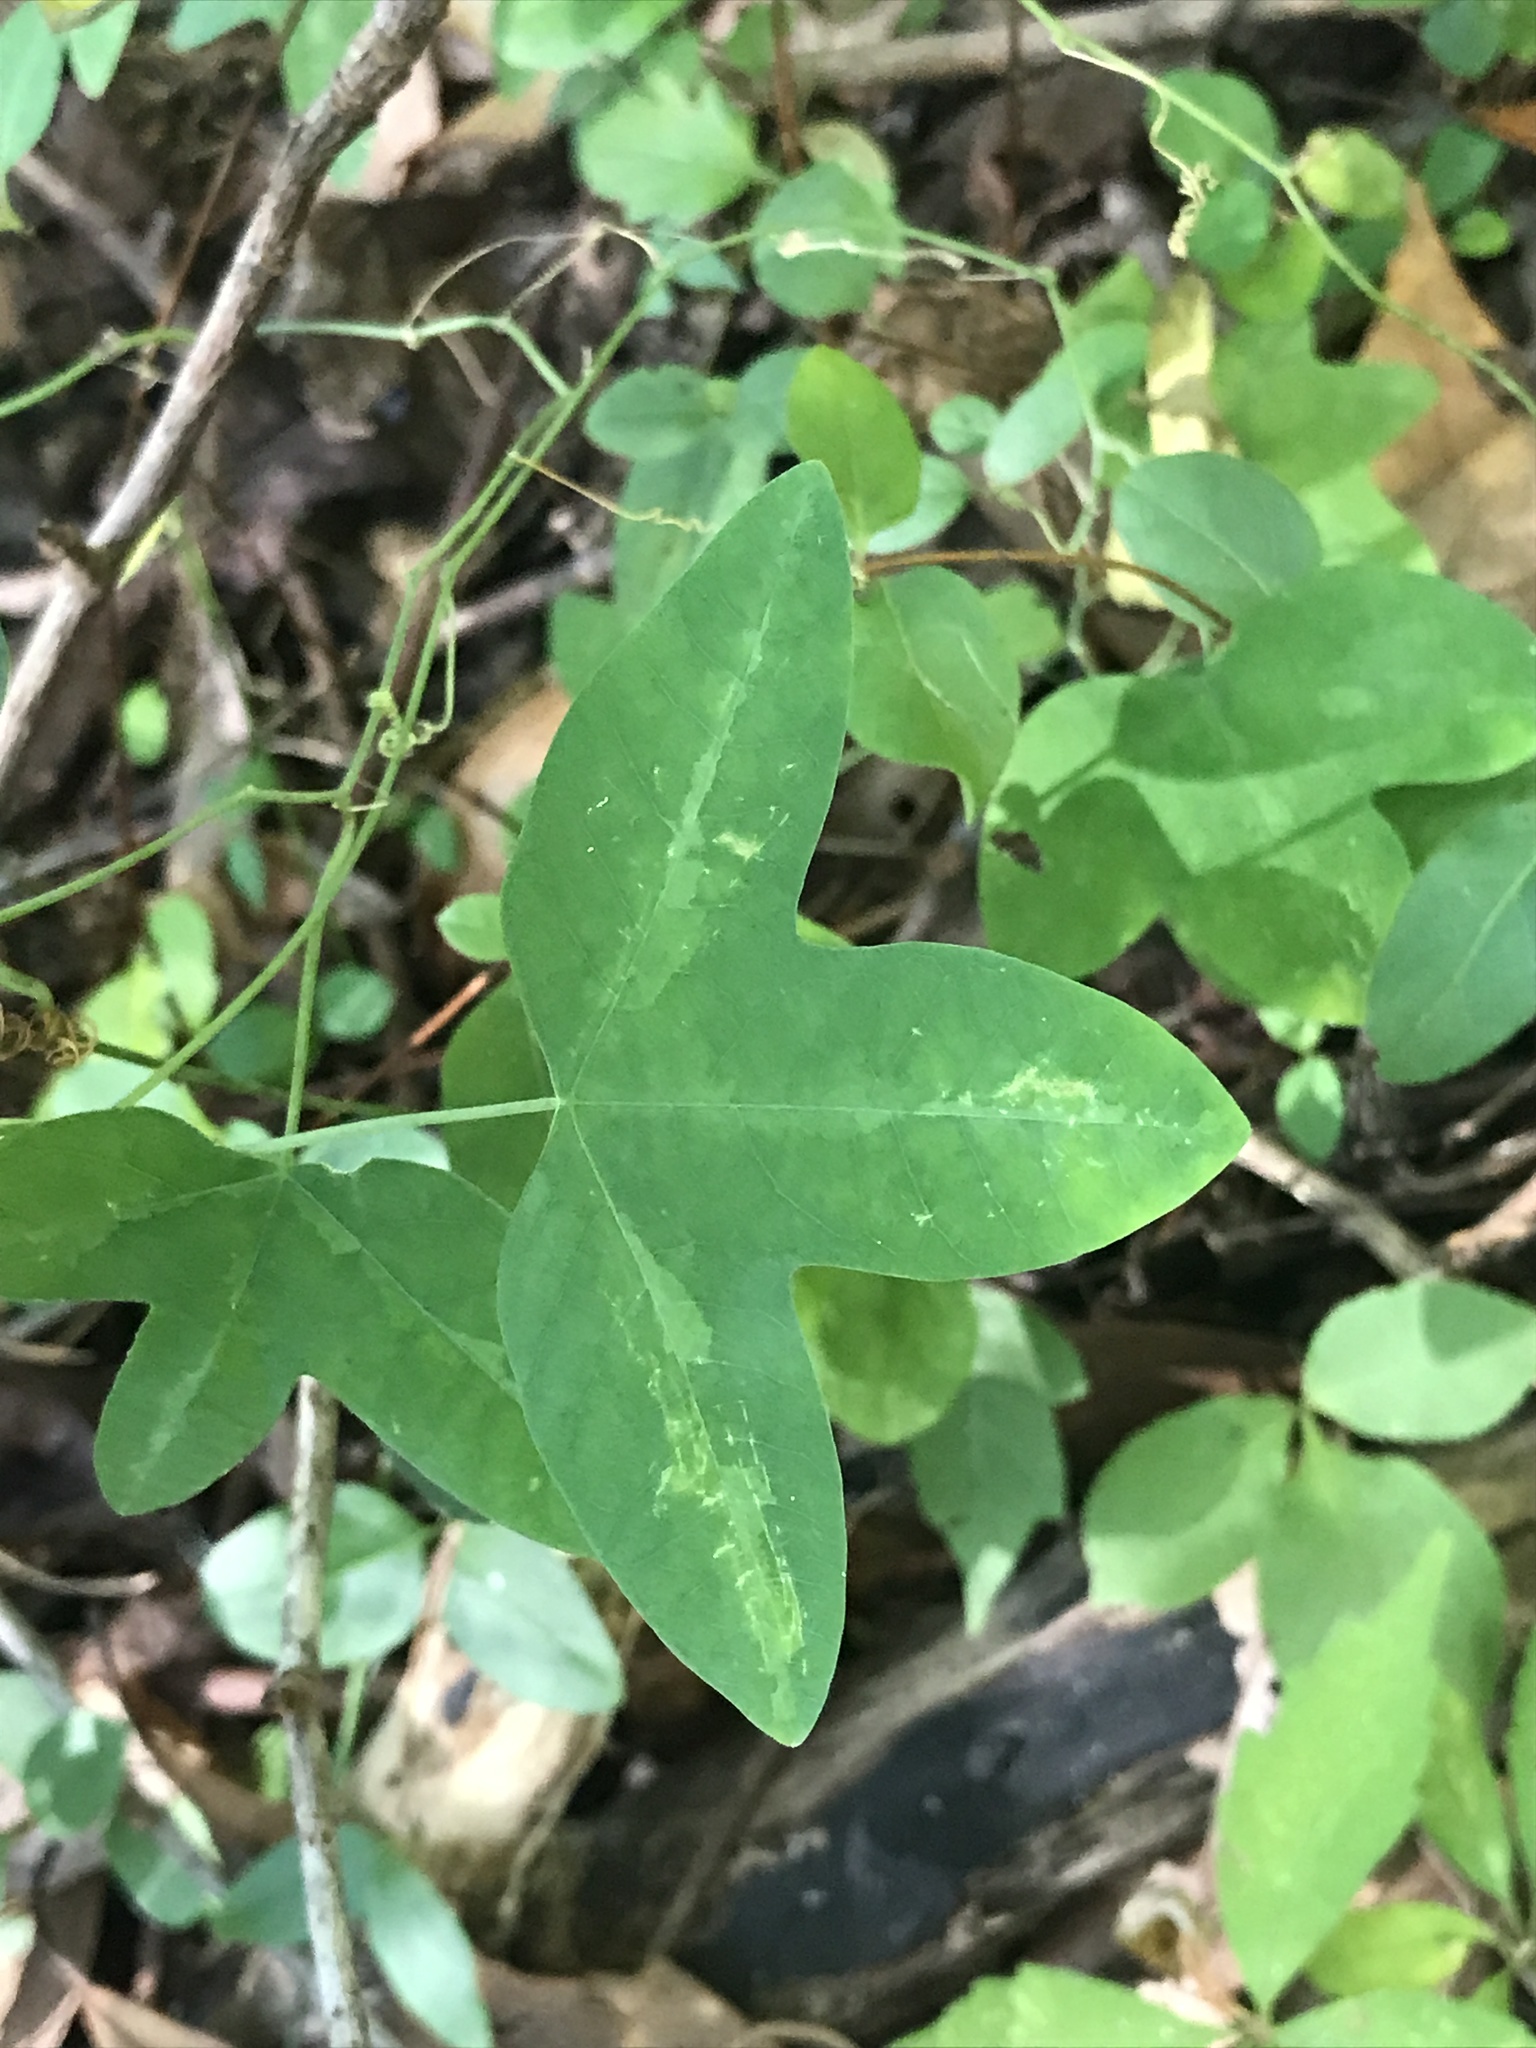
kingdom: Plantae
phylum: Tracheophyta
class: Magnoliopsida
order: Malpighiales
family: Passifloraceae
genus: Passiflora
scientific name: Passiflora lutea
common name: Yellow passionflower
